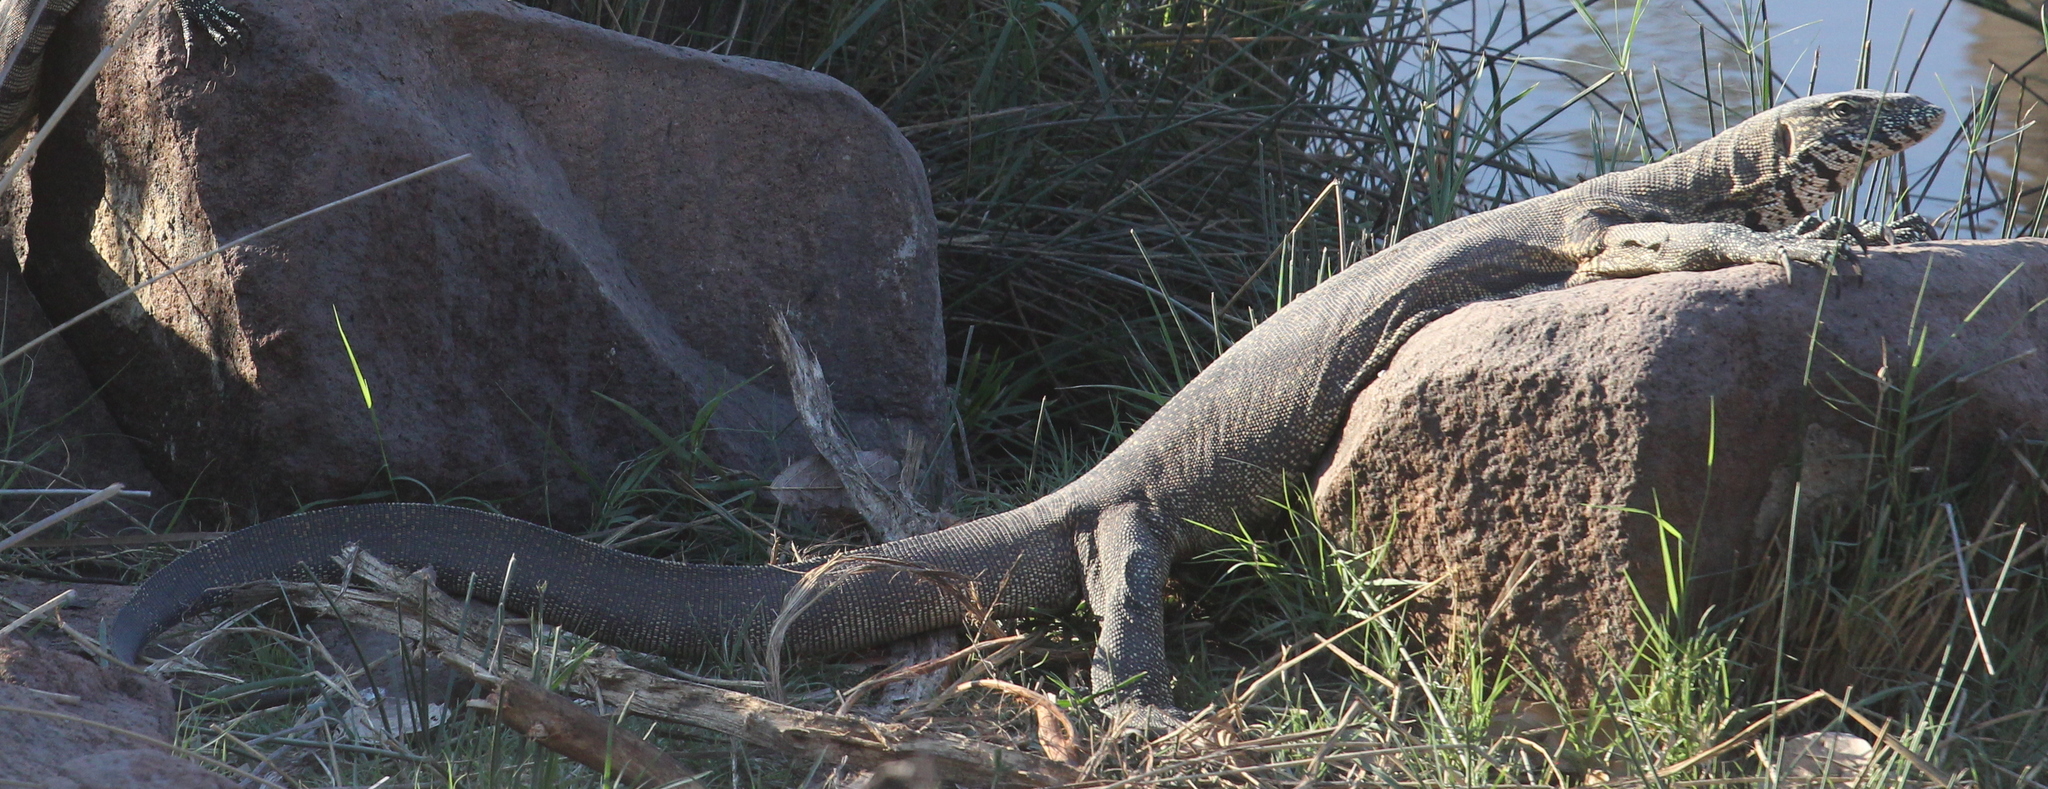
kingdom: Animalia
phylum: Chordata
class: Squamata
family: Varanidae
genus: Varanus
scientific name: Varanus niloticus
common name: Nile monitor
